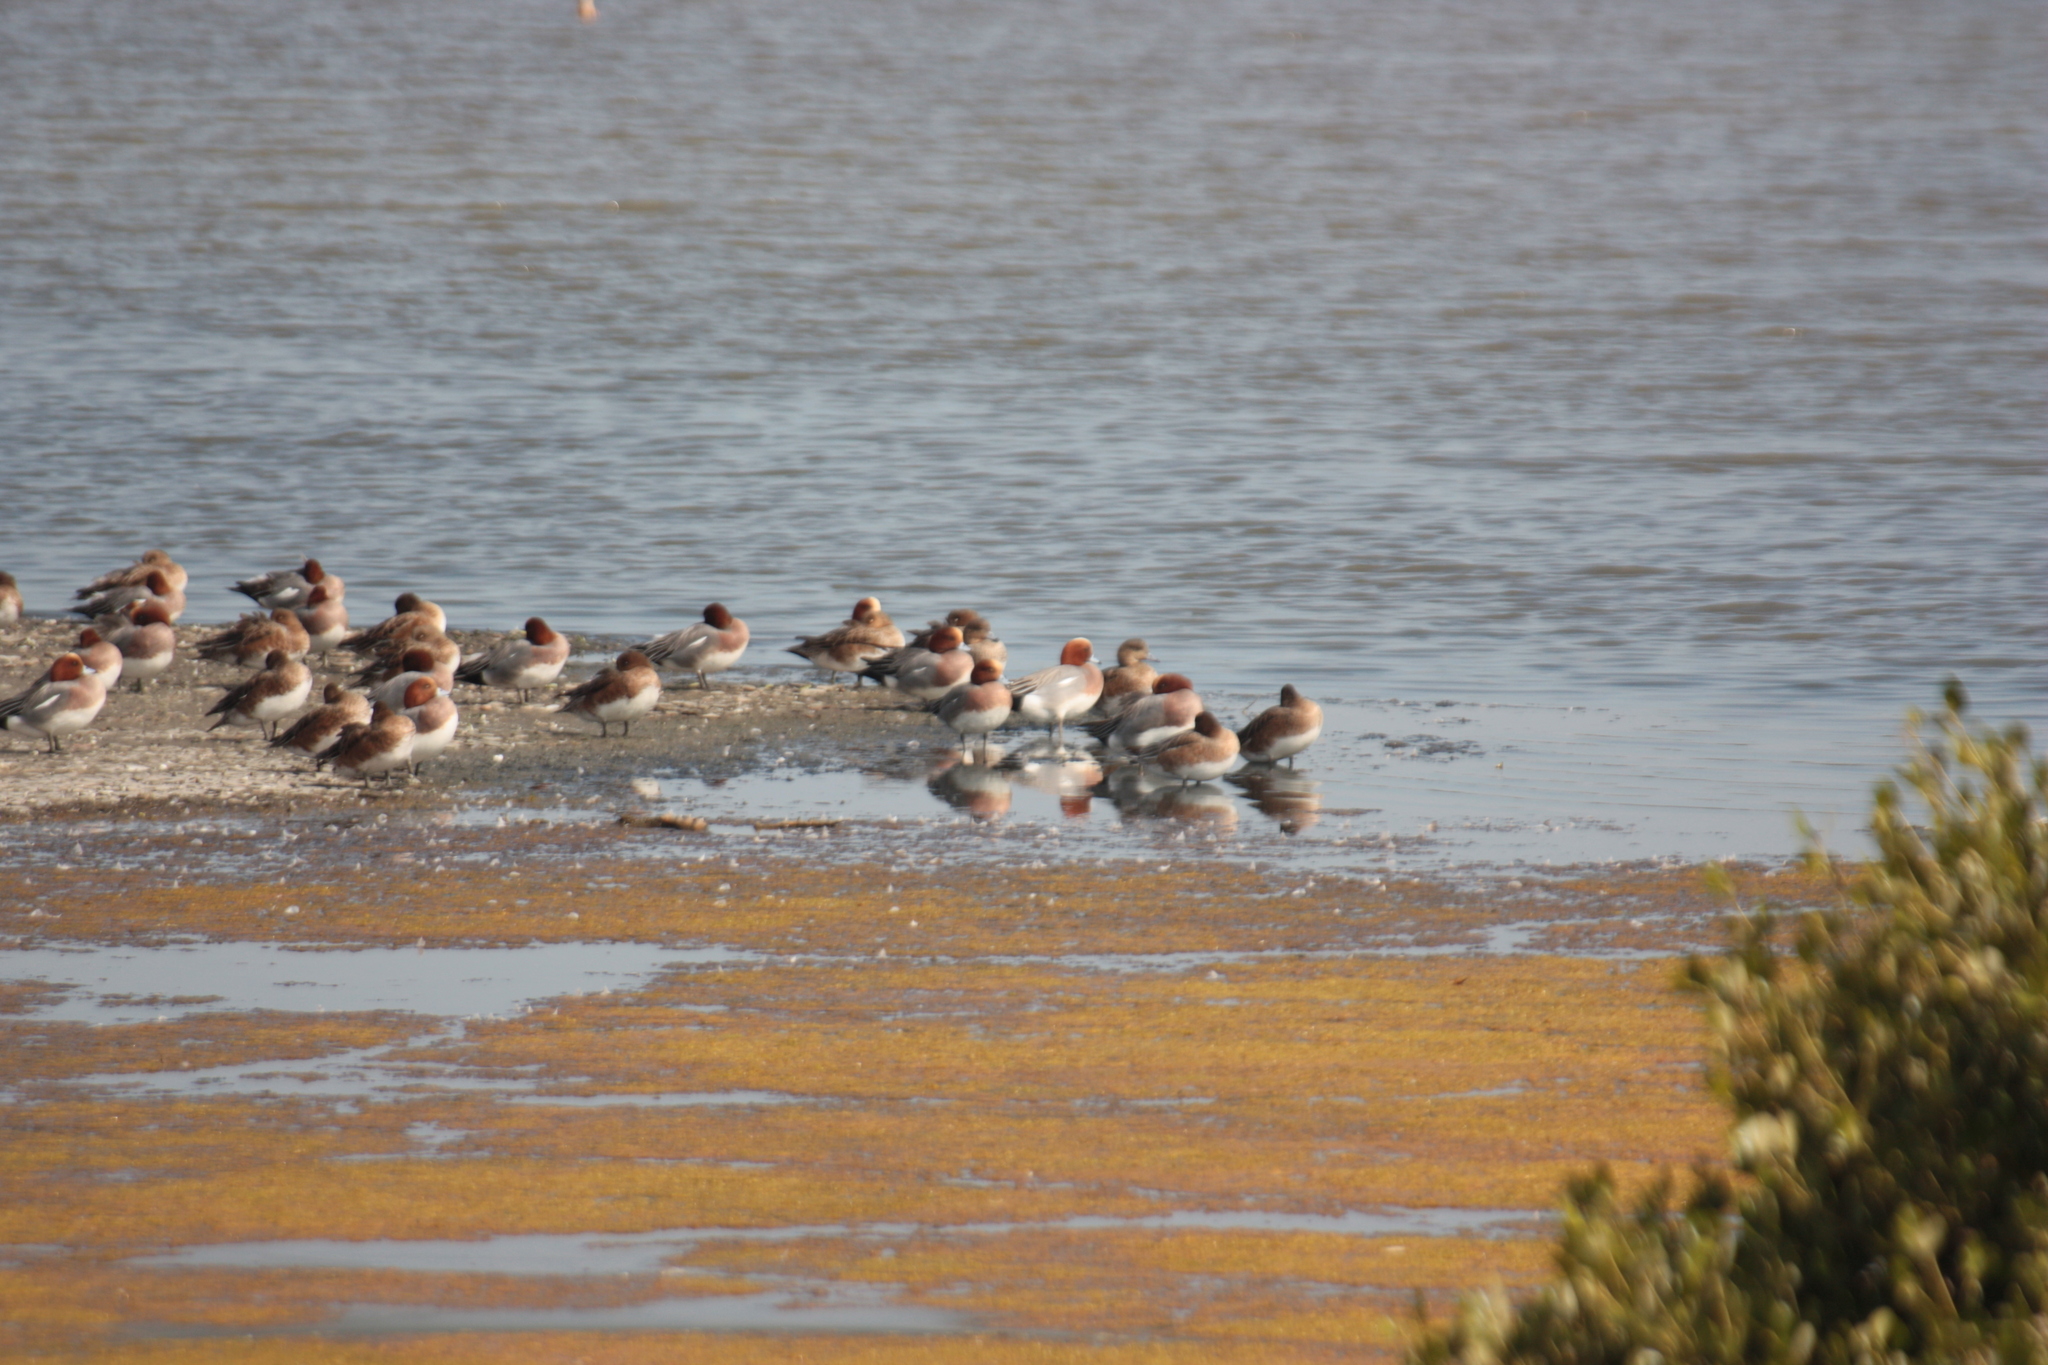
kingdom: Animalia
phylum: Chordata
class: Aves
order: Anseriformes
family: Anatidae
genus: Mareca
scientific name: Mareca penelope
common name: Eurasian wigeon
